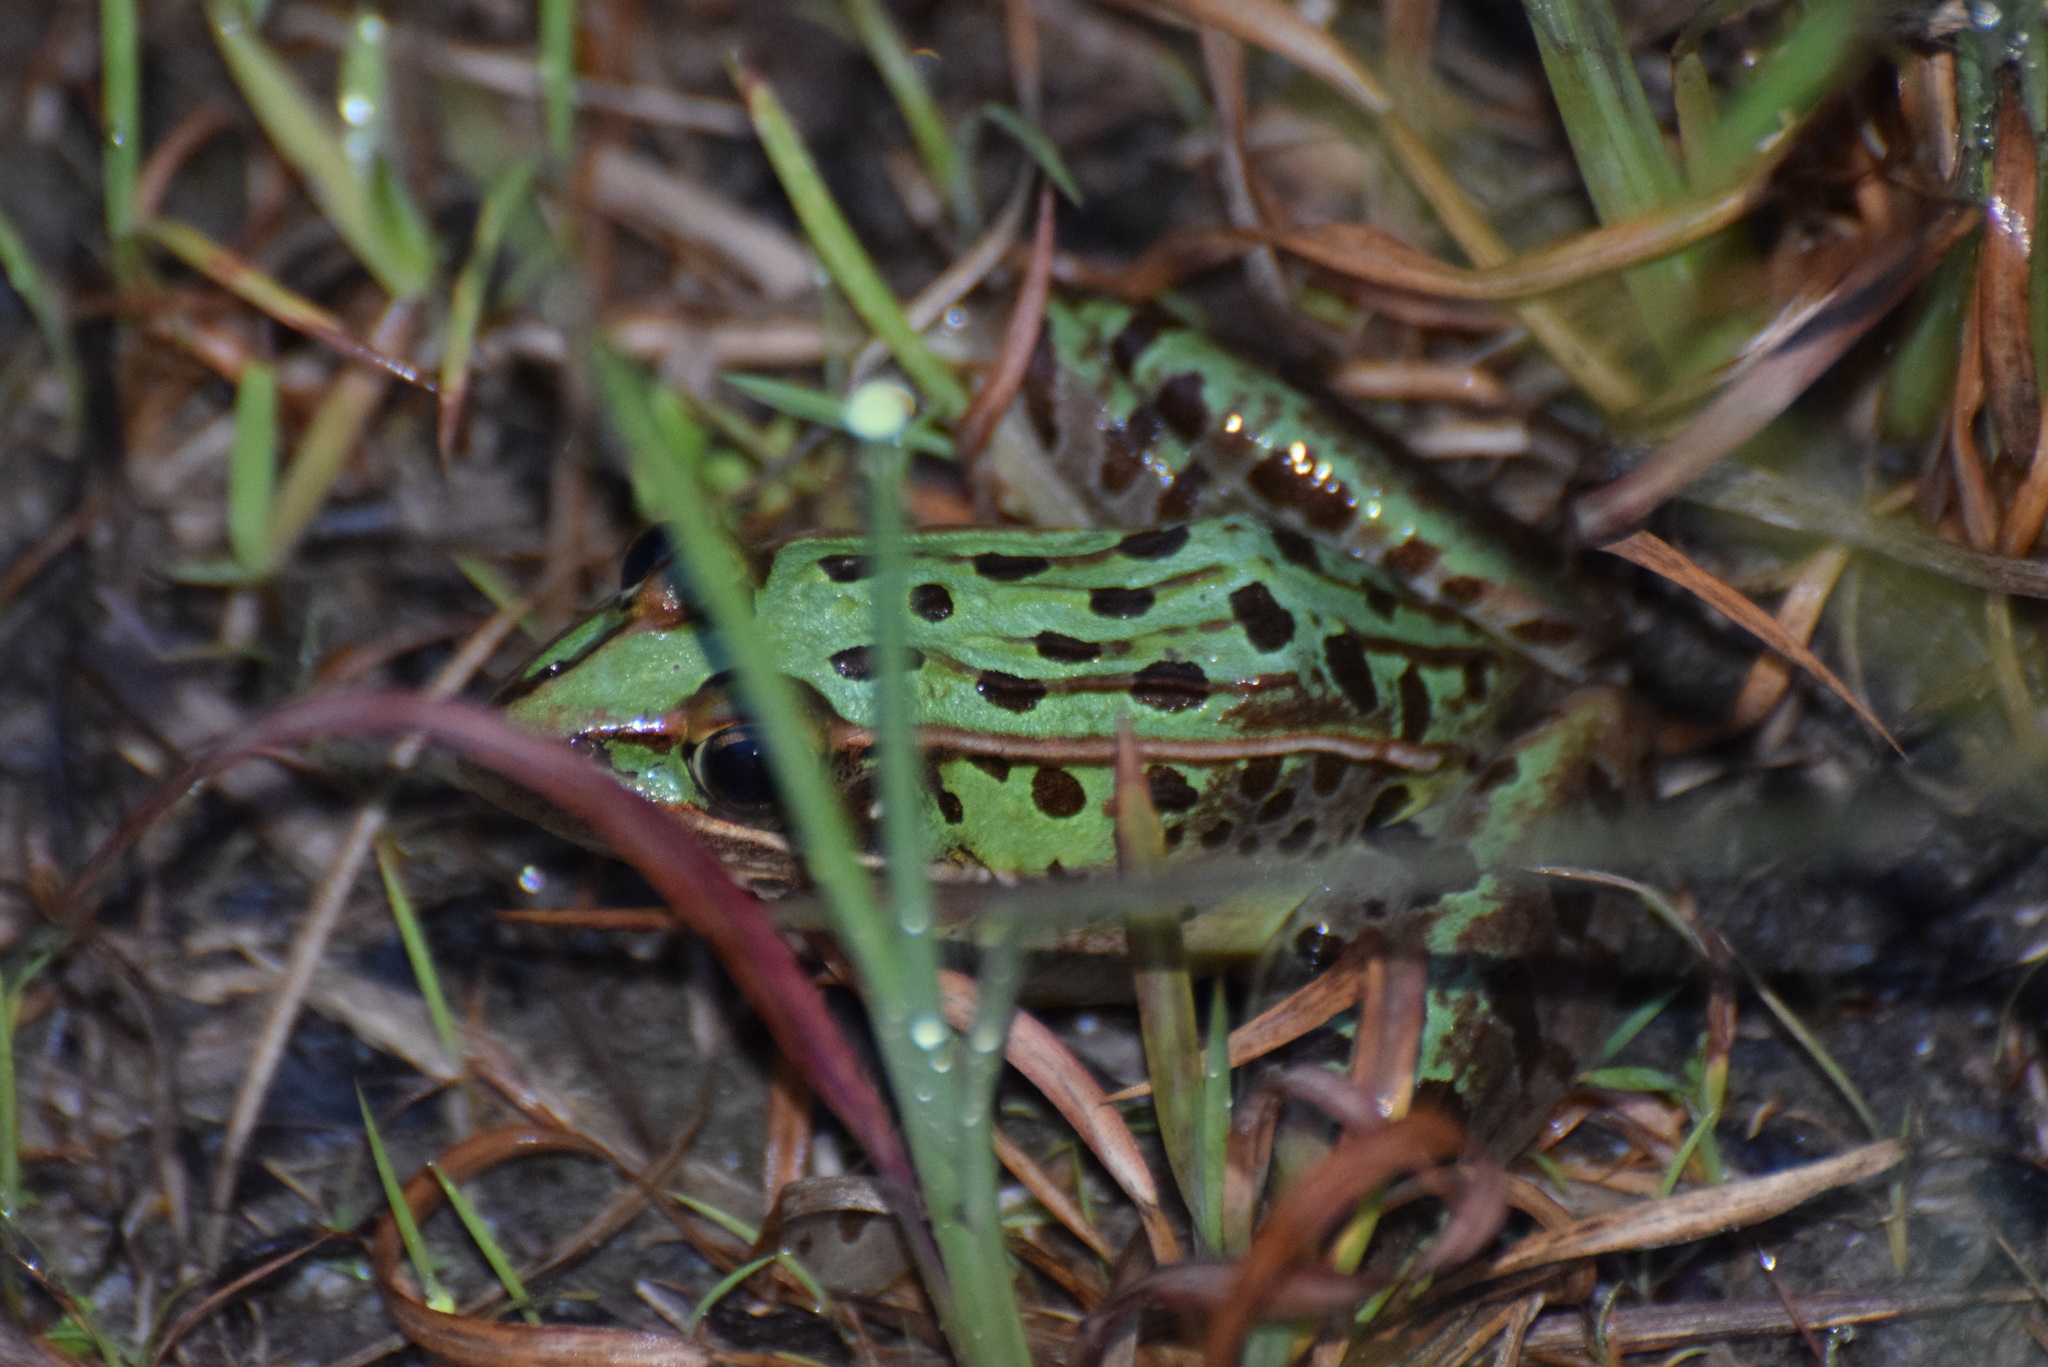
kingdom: Animalia
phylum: Chordata
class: Amphibia
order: Anura
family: Ranidae
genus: Lithobates
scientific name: Lithobates sphenocephalus
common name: Southern leopard frog
